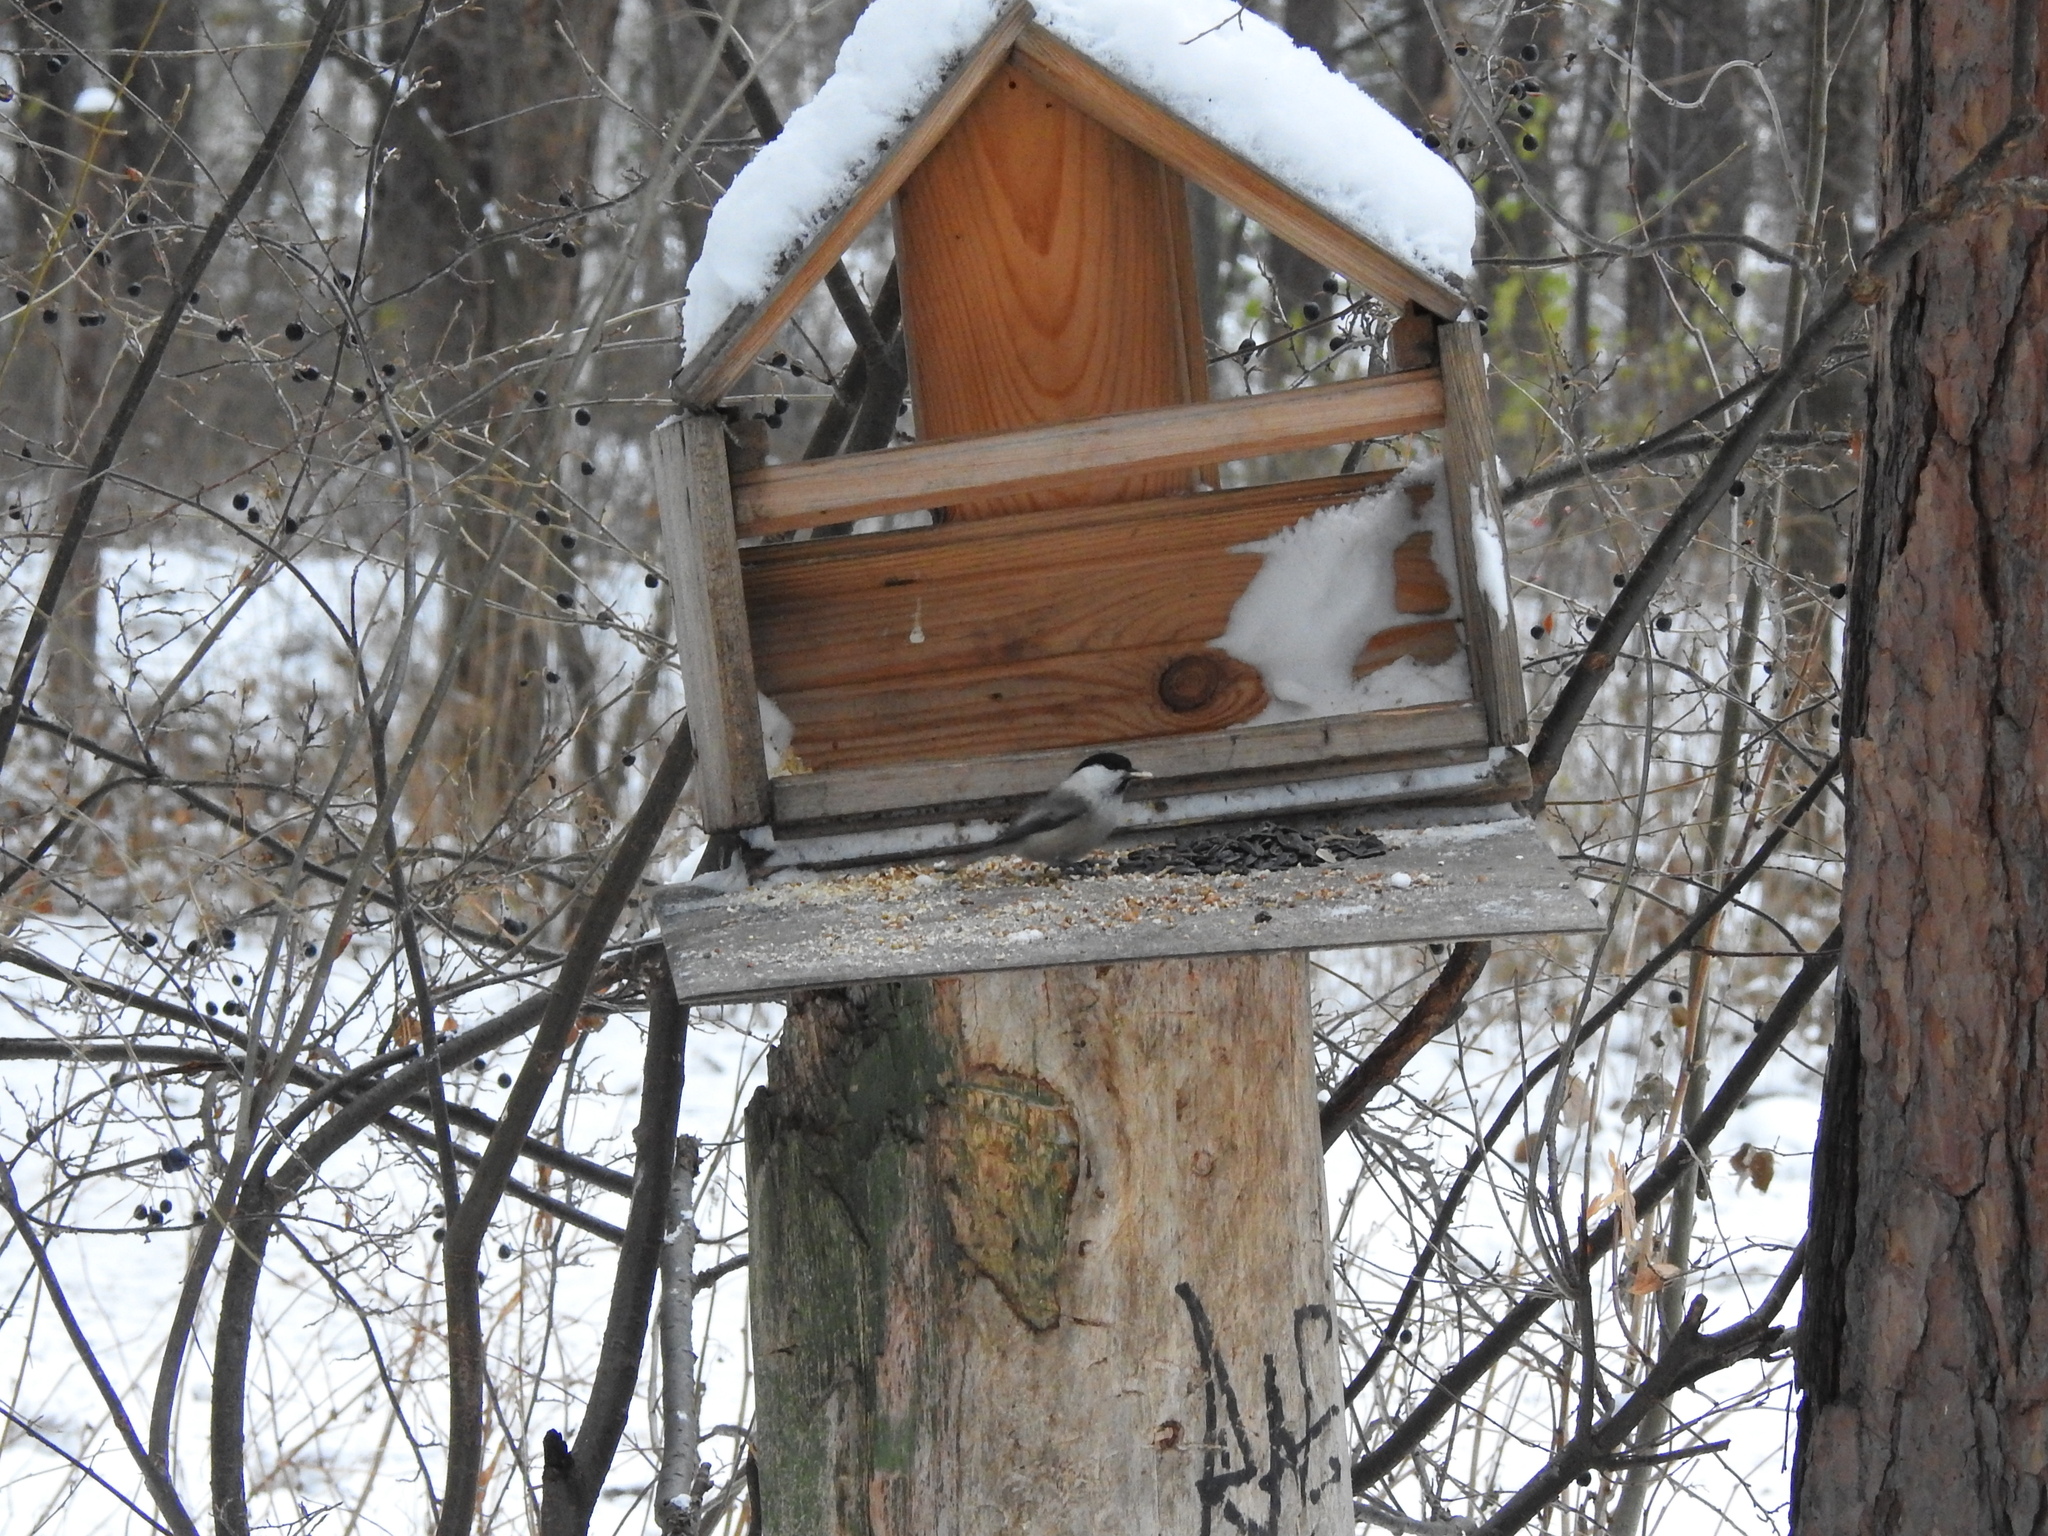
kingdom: Animalia
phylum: Chordata
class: Aves
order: Passeriformes
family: Paridae
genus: Poecile
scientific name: Poecile montanus
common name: Willow tit
